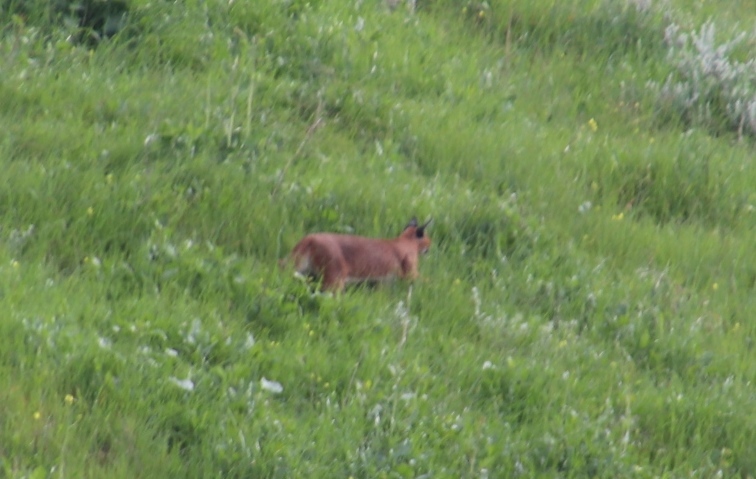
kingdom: Animalia
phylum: Chordata
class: Mammalia
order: Carnivora
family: Felidae
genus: Caracal
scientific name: Caracal caracal
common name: Caracal
